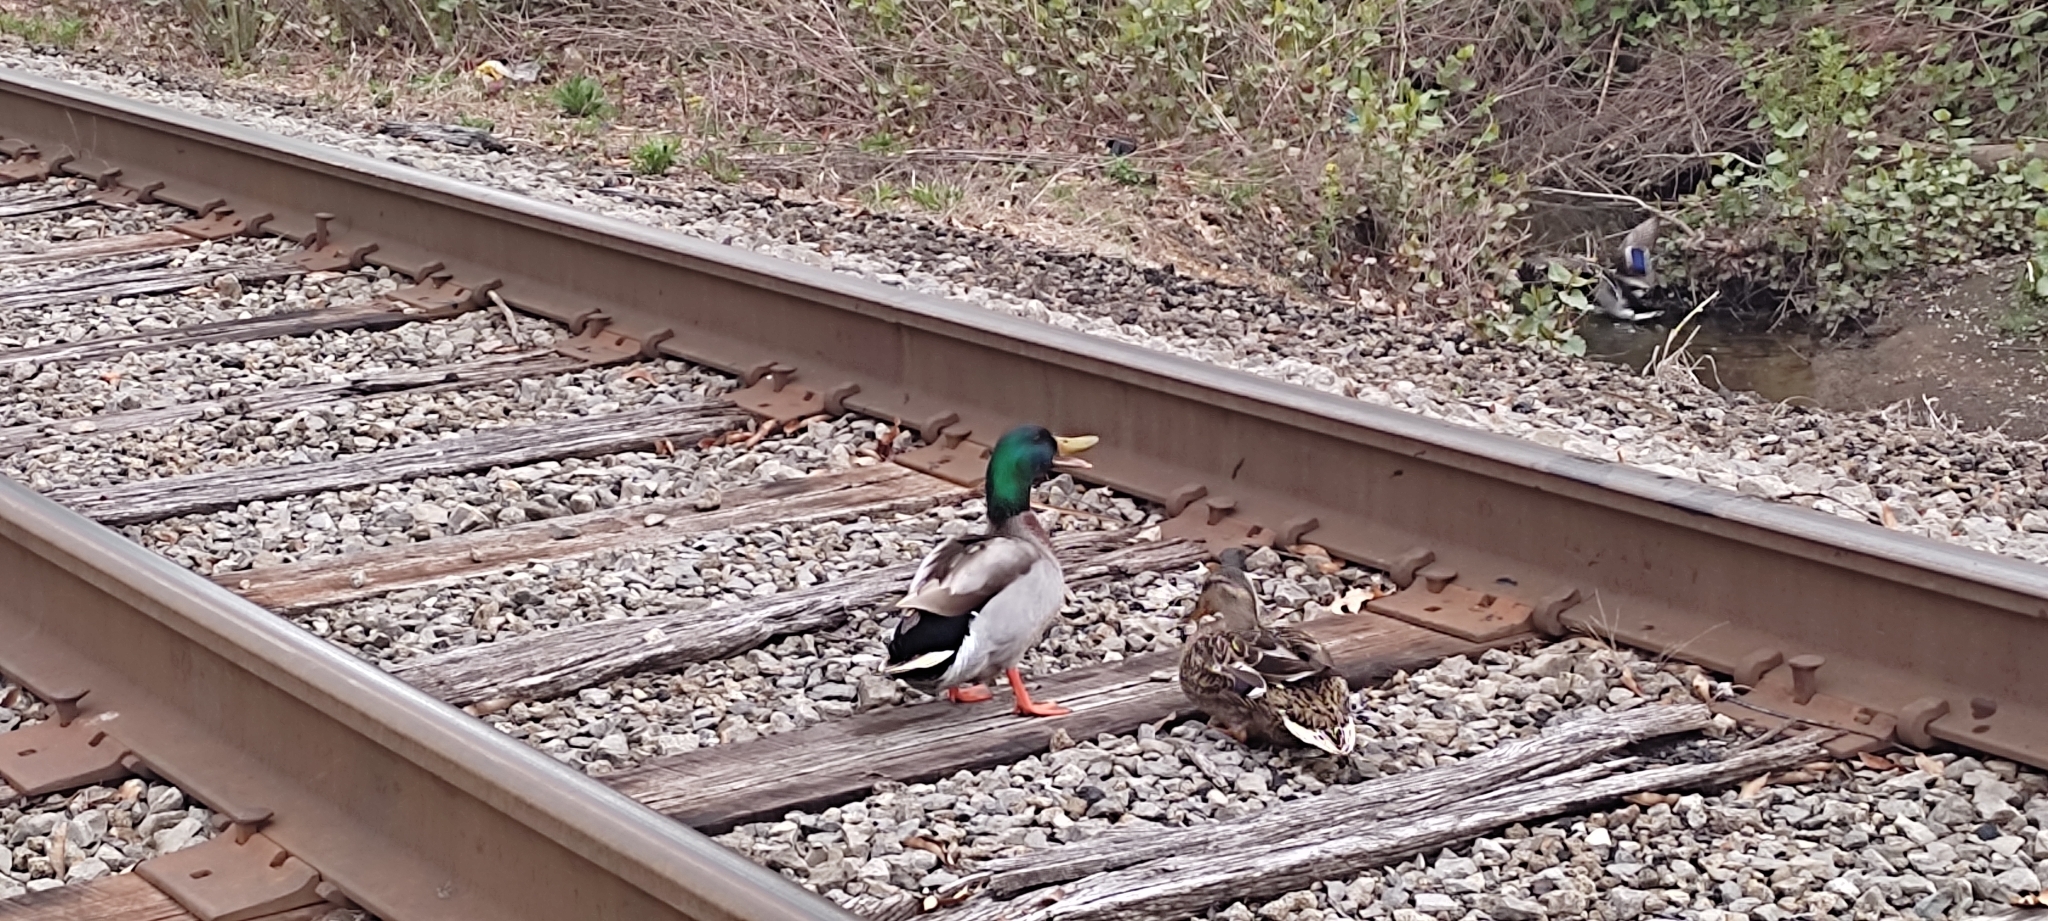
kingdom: Animalia
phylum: Chordata
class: Aves
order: Anseriformes
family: Anatidae
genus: Anas
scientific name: Anas platyrhynchos
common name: Mallard
